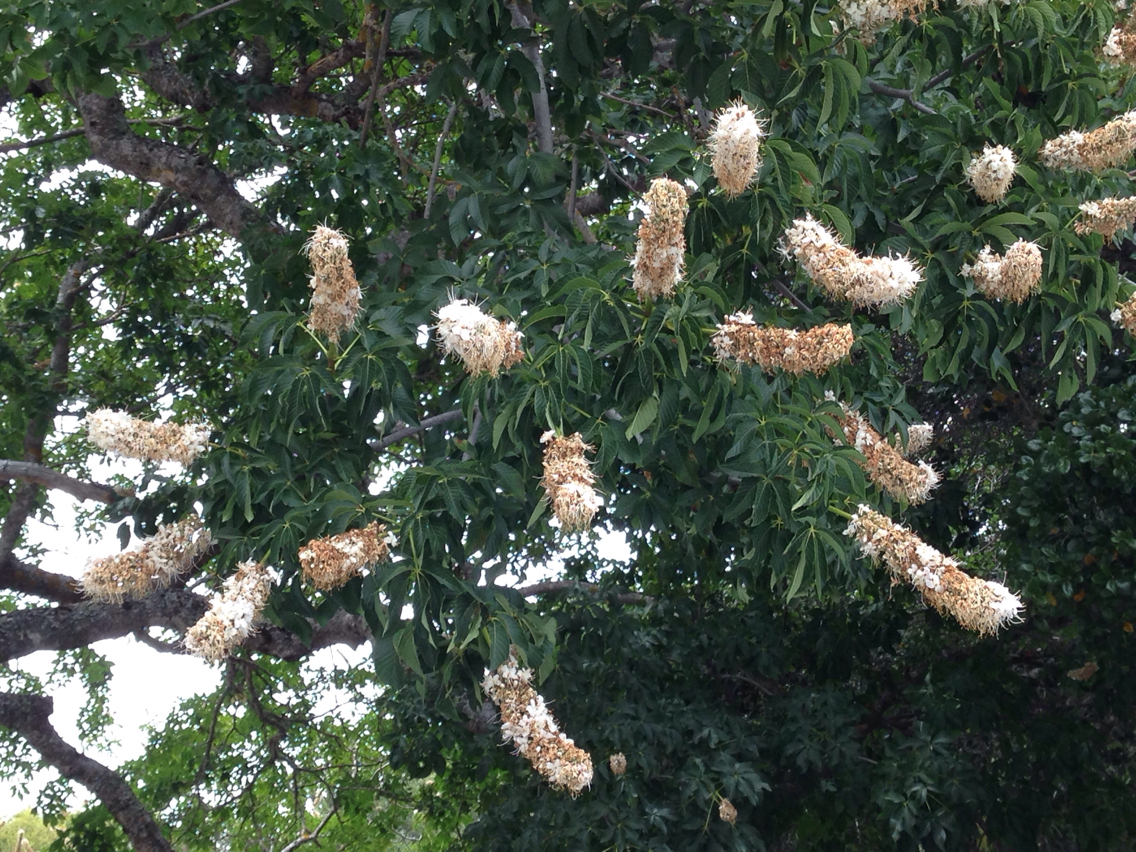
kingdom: Plantae
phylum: Tracheophyta
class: Magnoliopsida
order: Sapindales
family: Sapindaceae
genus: Aesculus
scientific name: Aesculus californica
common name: California buckeye
